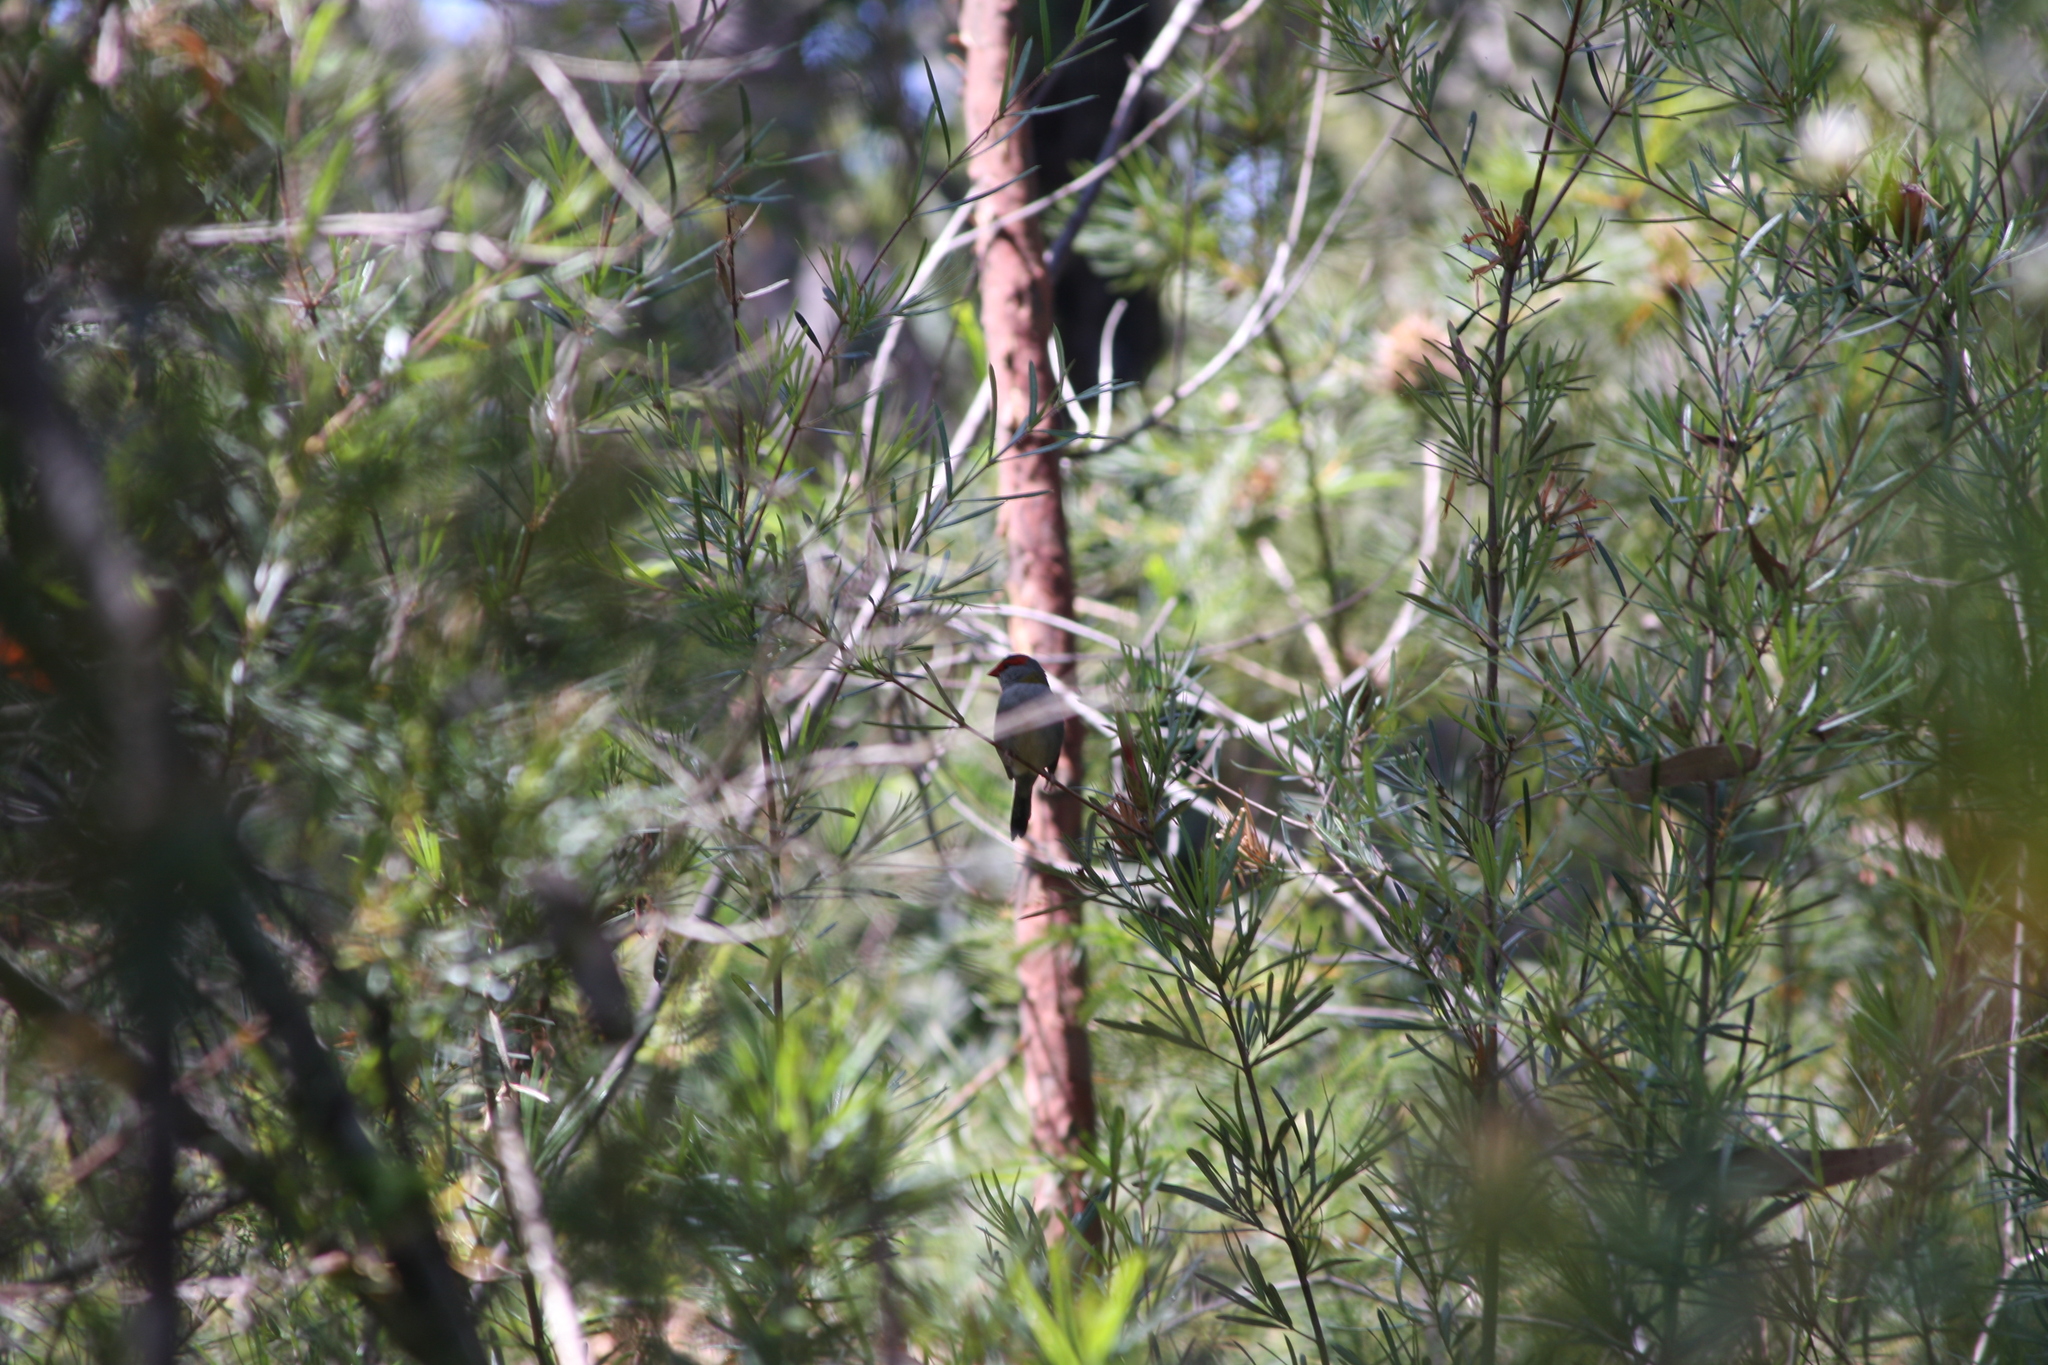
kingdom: Animalia
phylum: Chordata
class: Aves
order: Passeriformes
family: Estrildidae
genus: Neochmia
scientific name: Neochmia temporalis
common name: Red-browed finch
